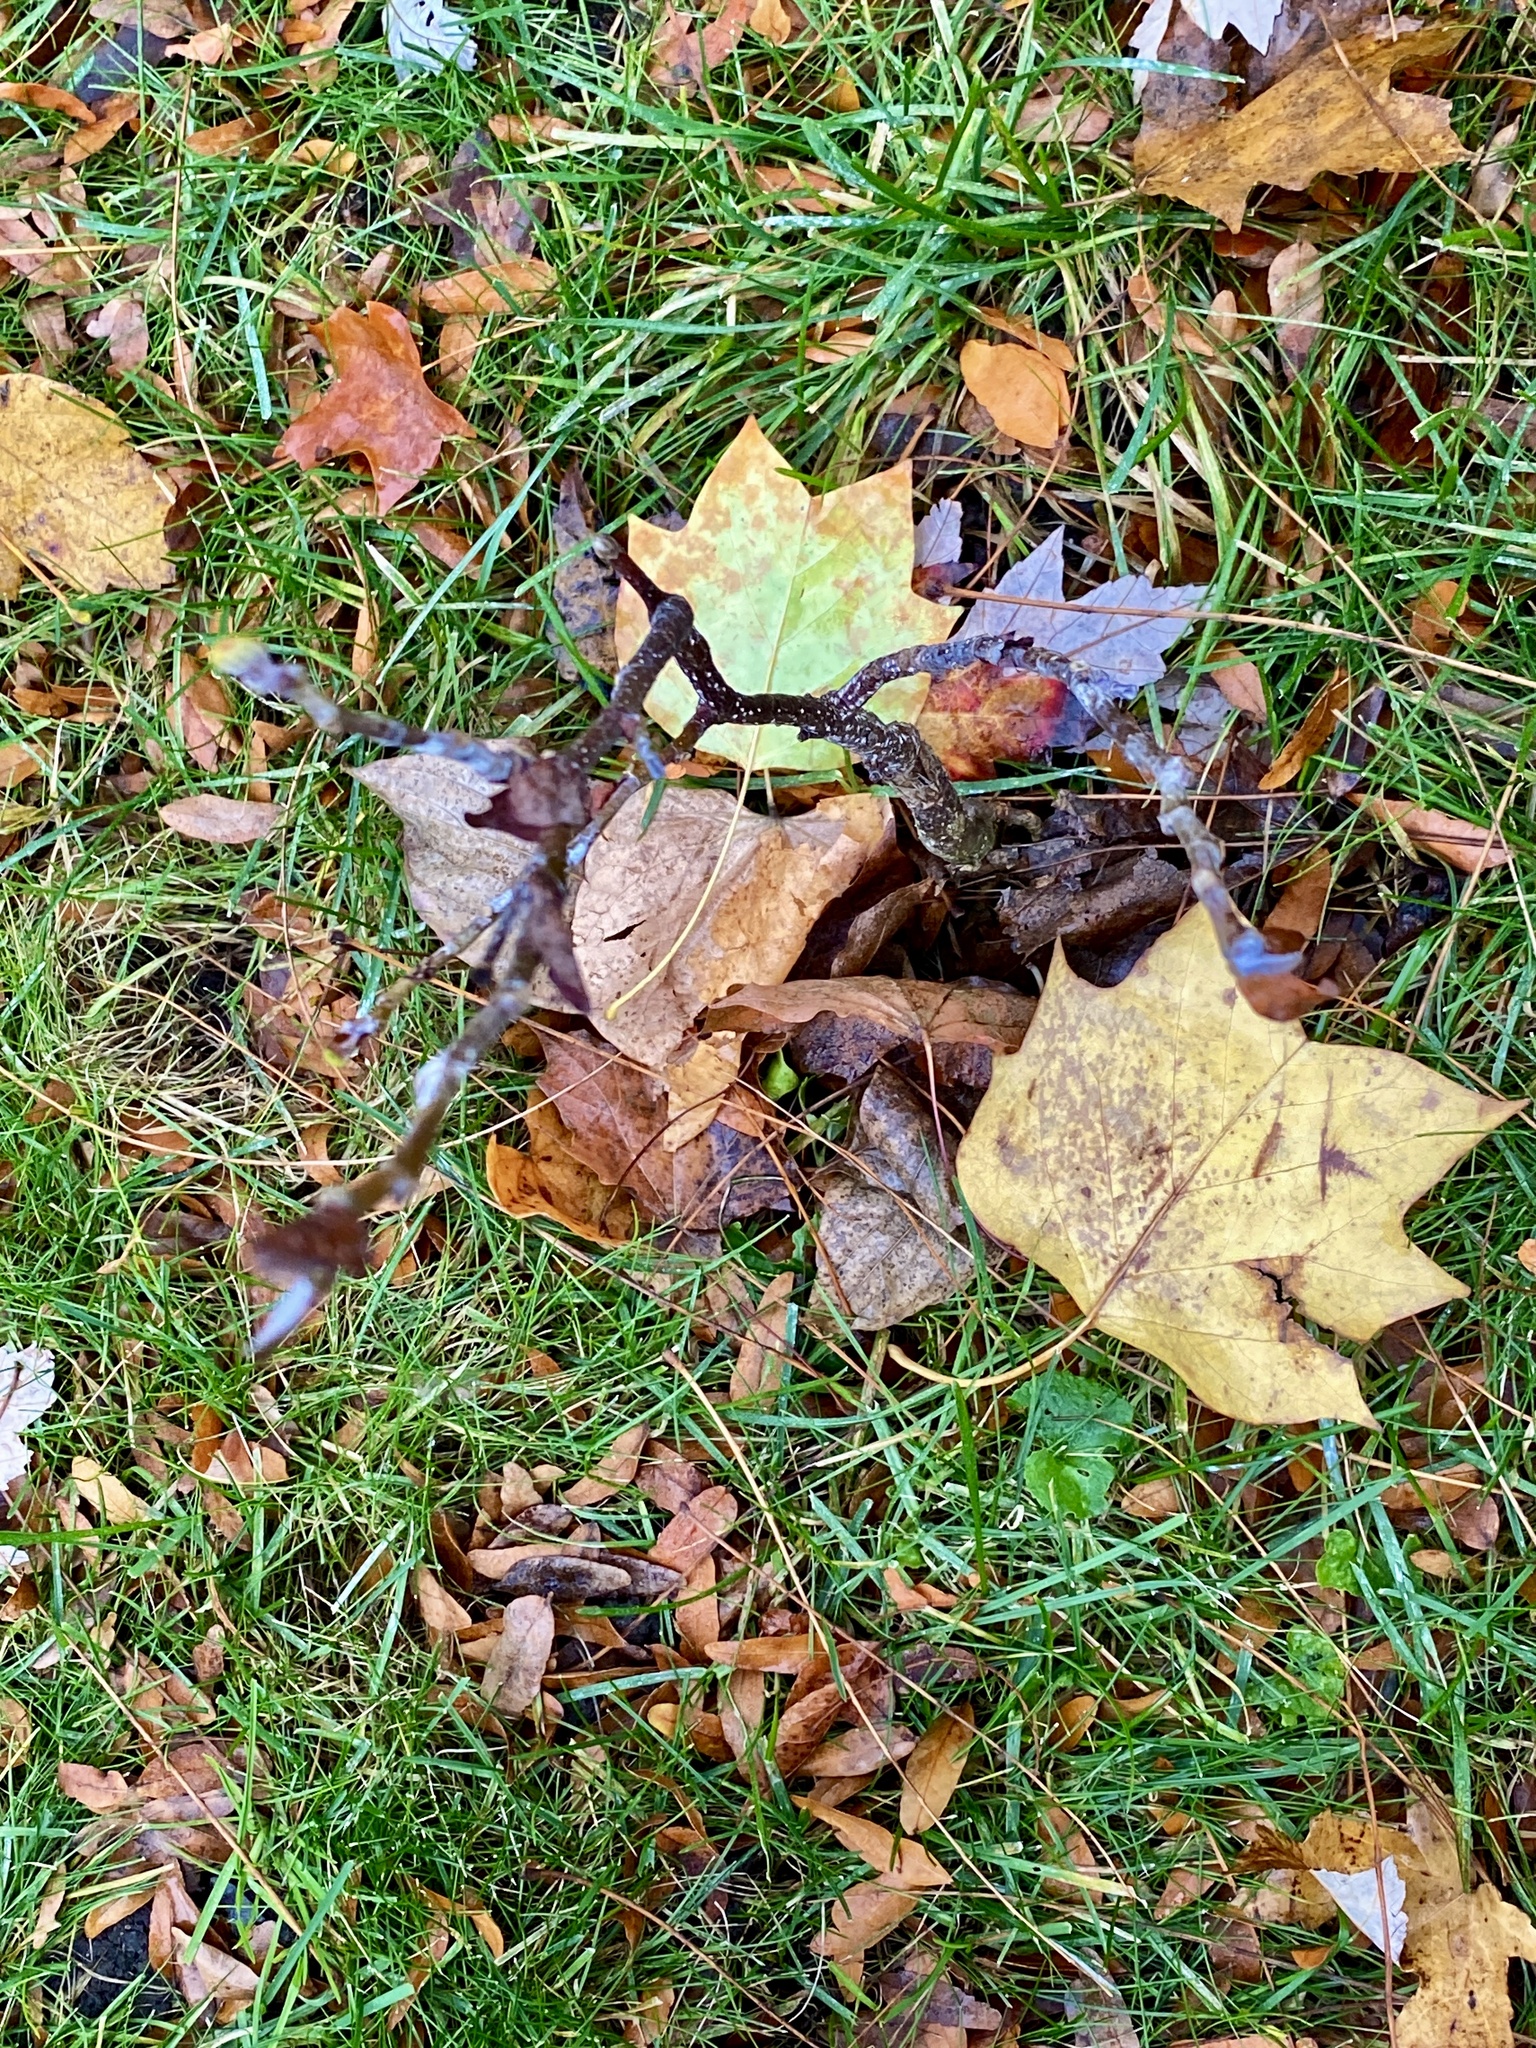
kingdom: Plantae
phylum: Tracheophyta
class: Magnoliopsida
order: Magnoliales
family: Magnoliaceae
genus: Liriodendron
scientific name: Liriodendron tulipifera
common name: Tulip tree
